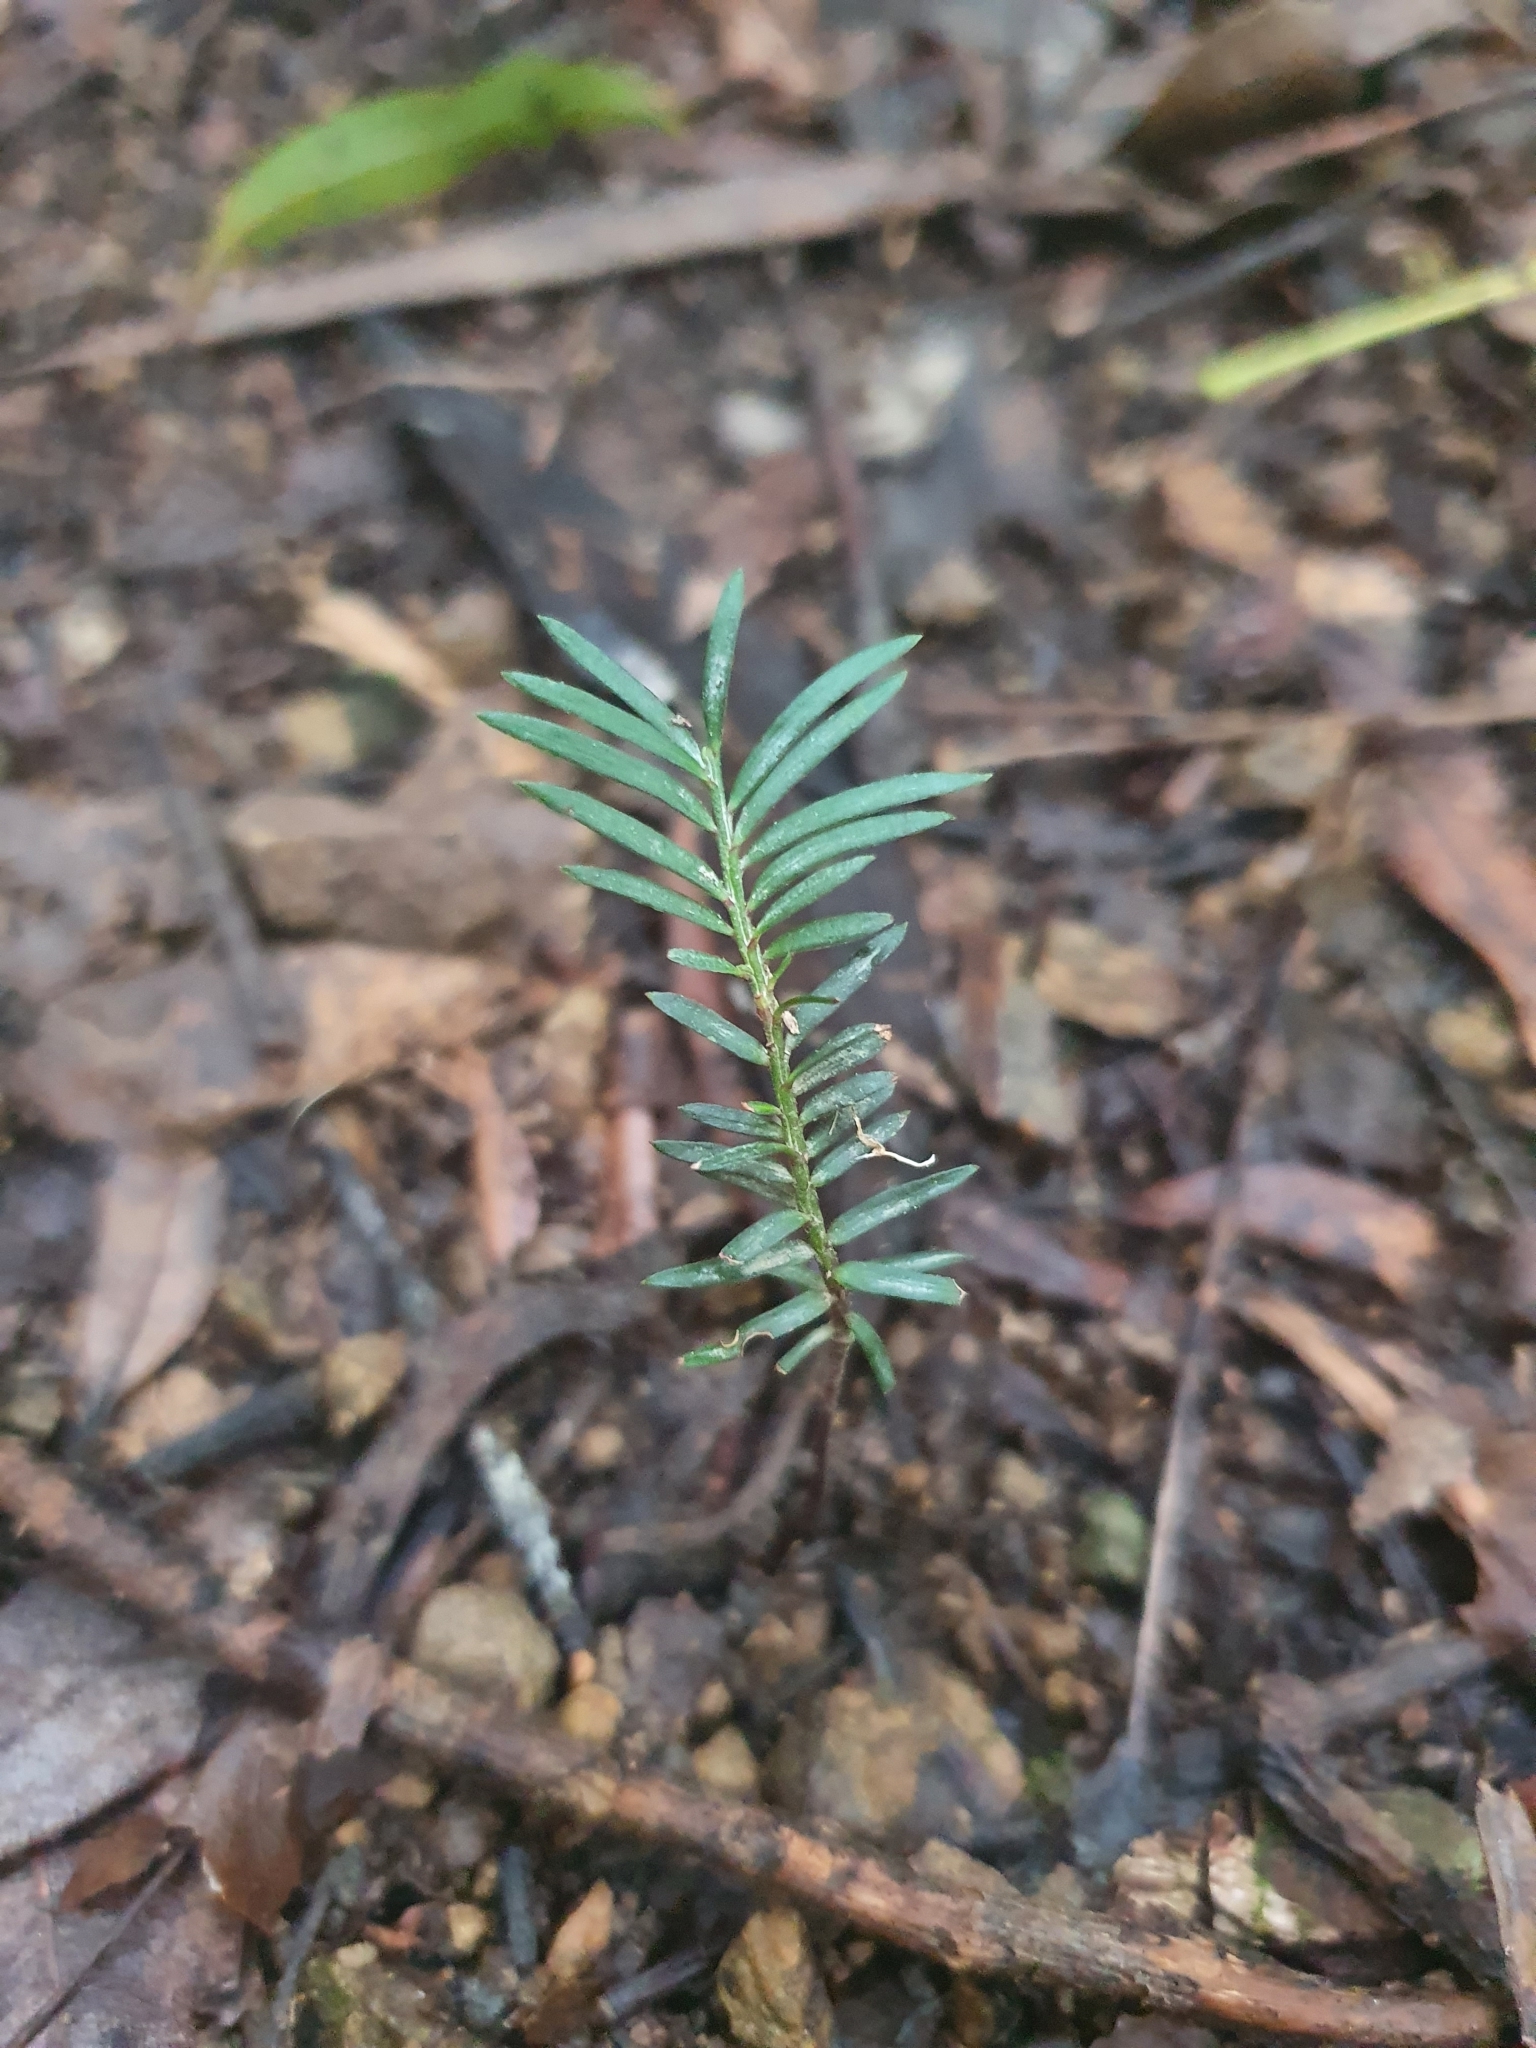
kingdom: Plantae
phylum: Tracheophyta
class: Pinopsida
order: Pinales
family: Podocarpaceae
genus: Prumnopitys
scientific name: Prumnopitys taxifolia
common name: Matai
